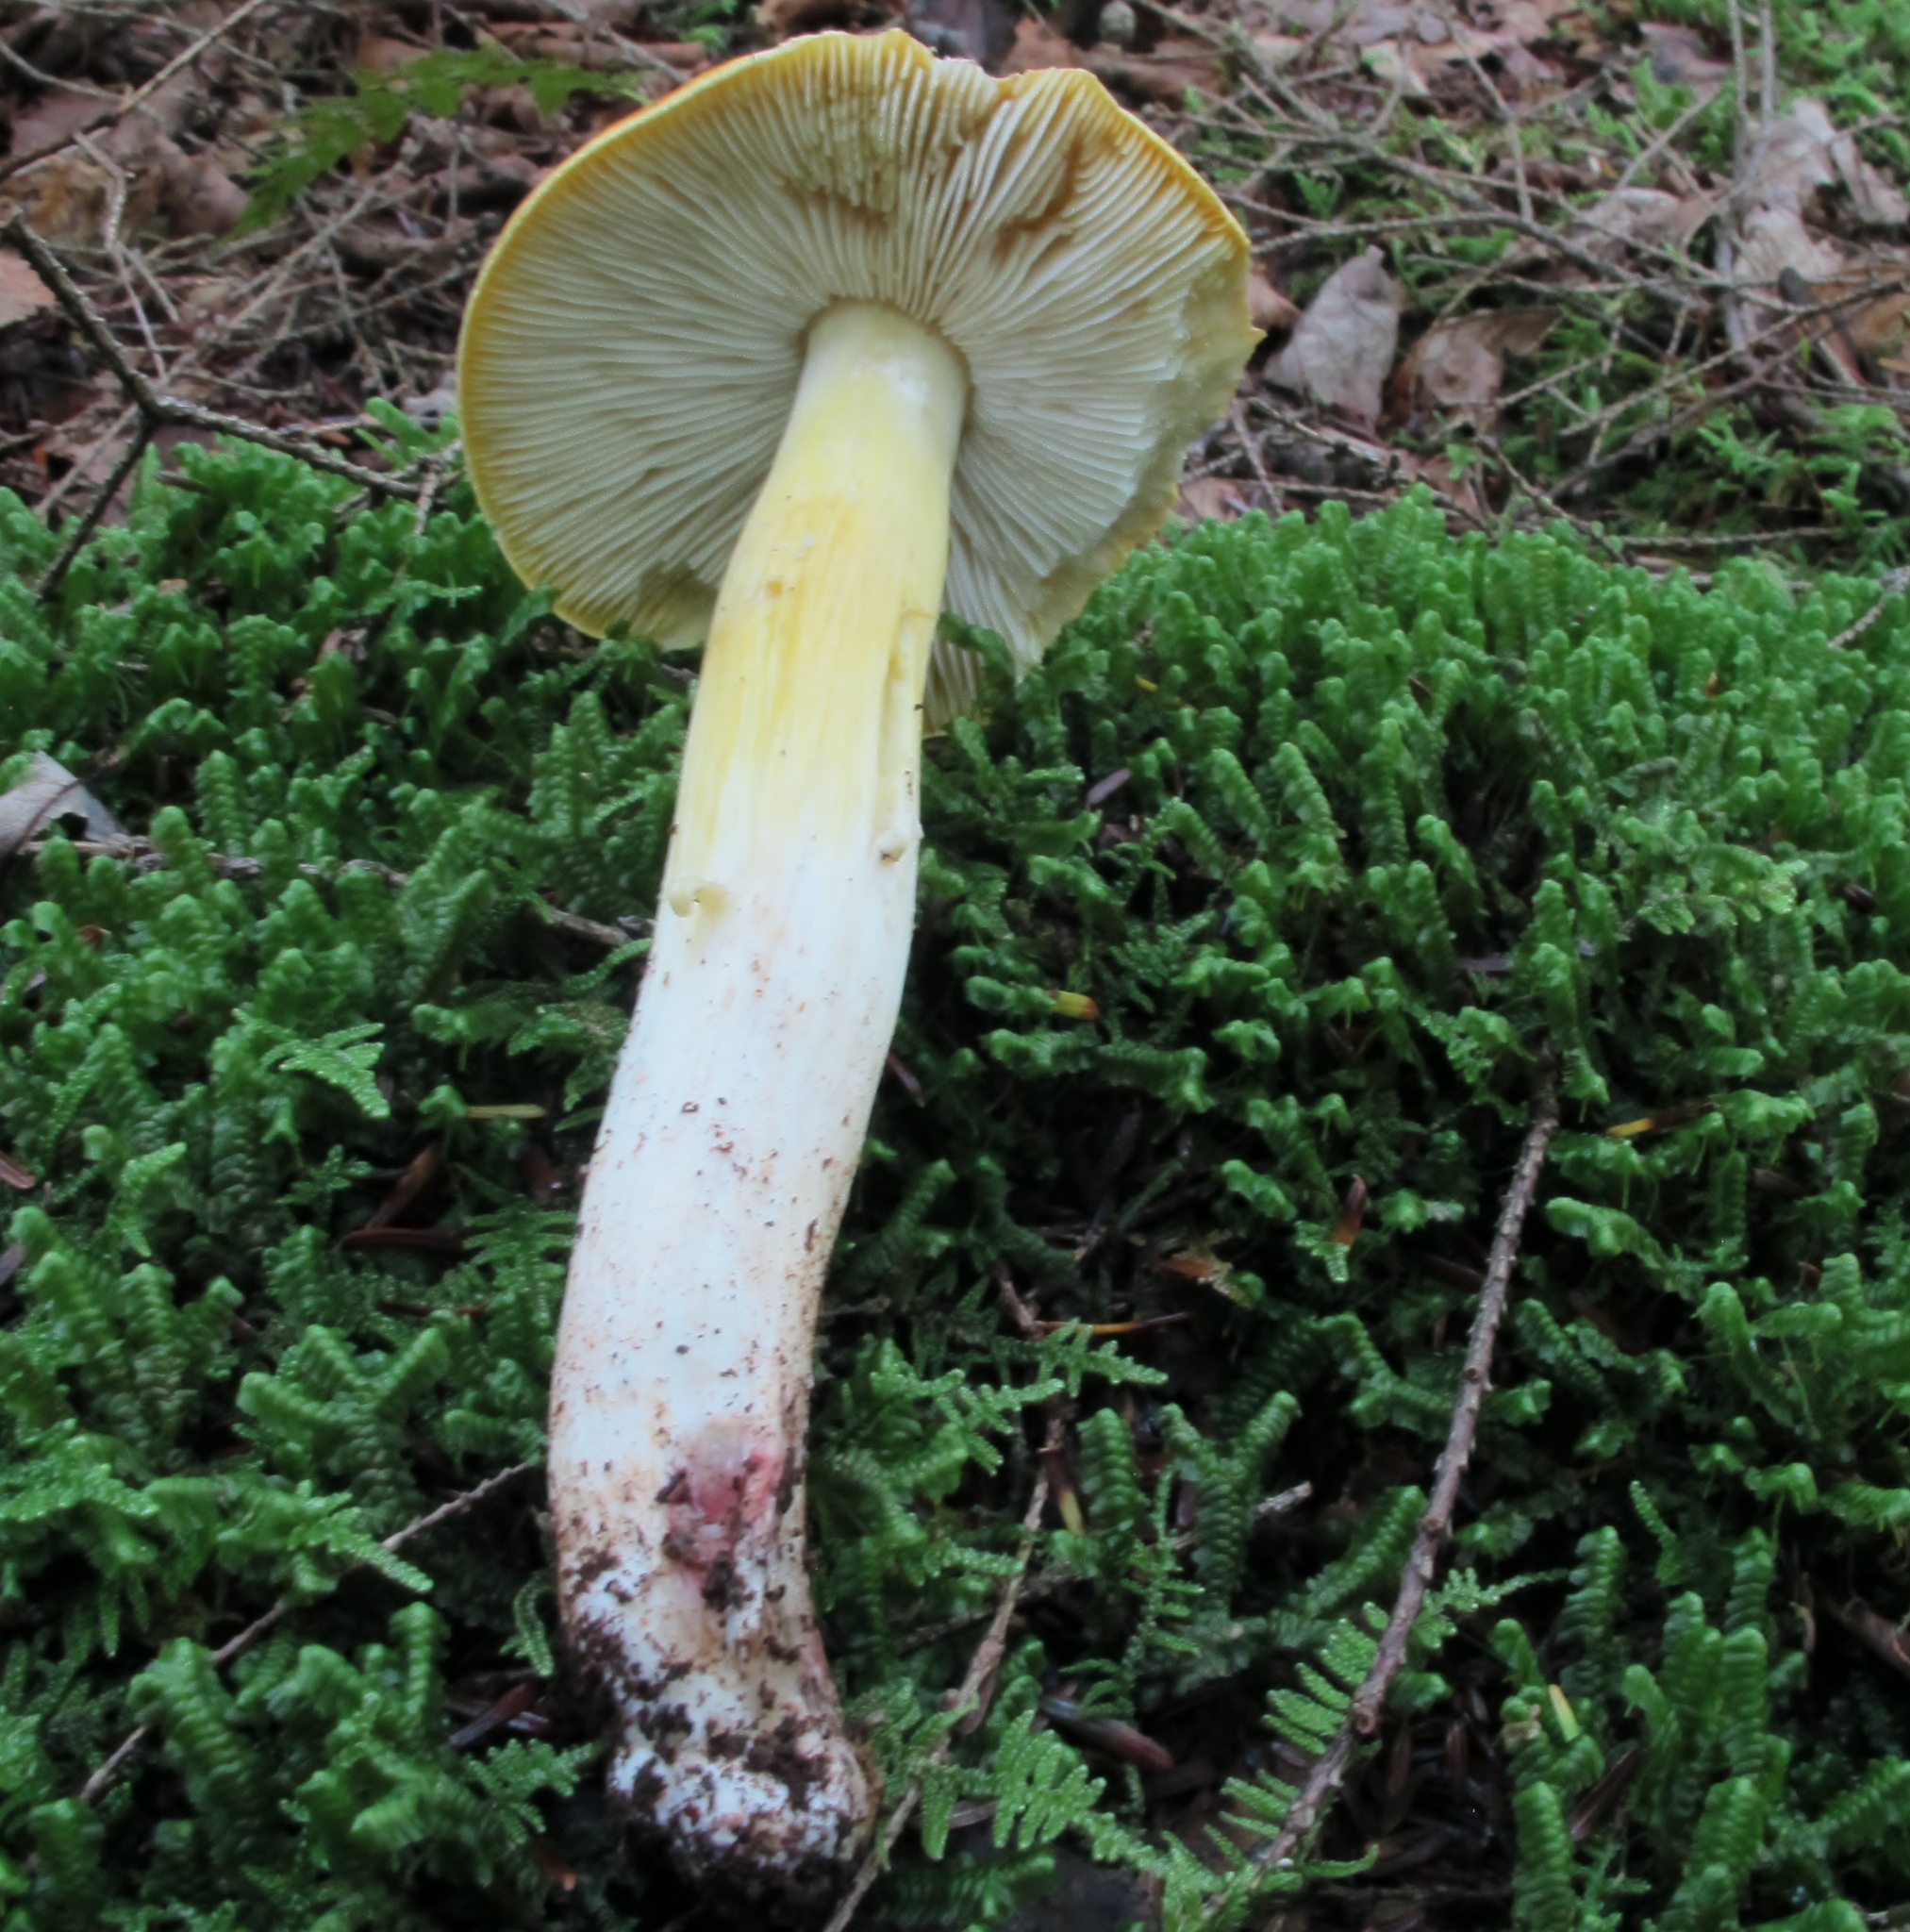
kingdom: Fungi
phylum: Basidiomycota
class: Agaricomycetes
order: Agaricales
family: Tricholomataceae
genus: Melanoleuca
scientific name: Melanoleuca fumosolutea
